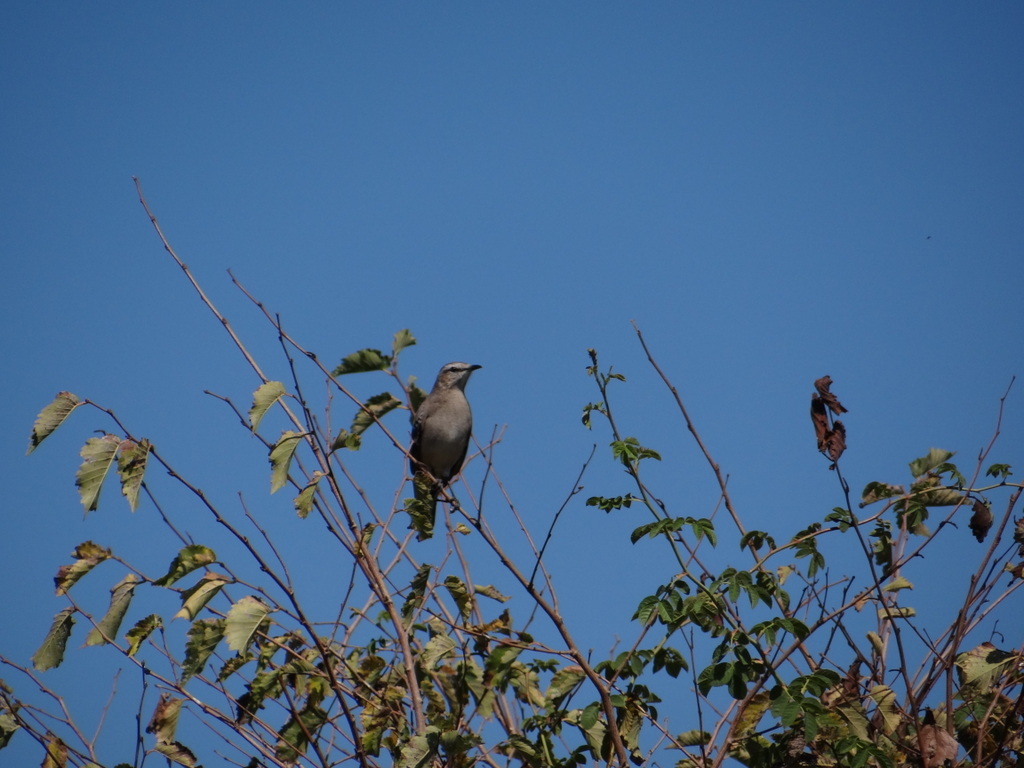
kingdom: Animalia
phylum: Chordata
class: Aves
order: Passeriformes
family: Mimidae
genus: Mimus
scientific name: Mimus patagonicus
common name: Patagonian mockingbird
